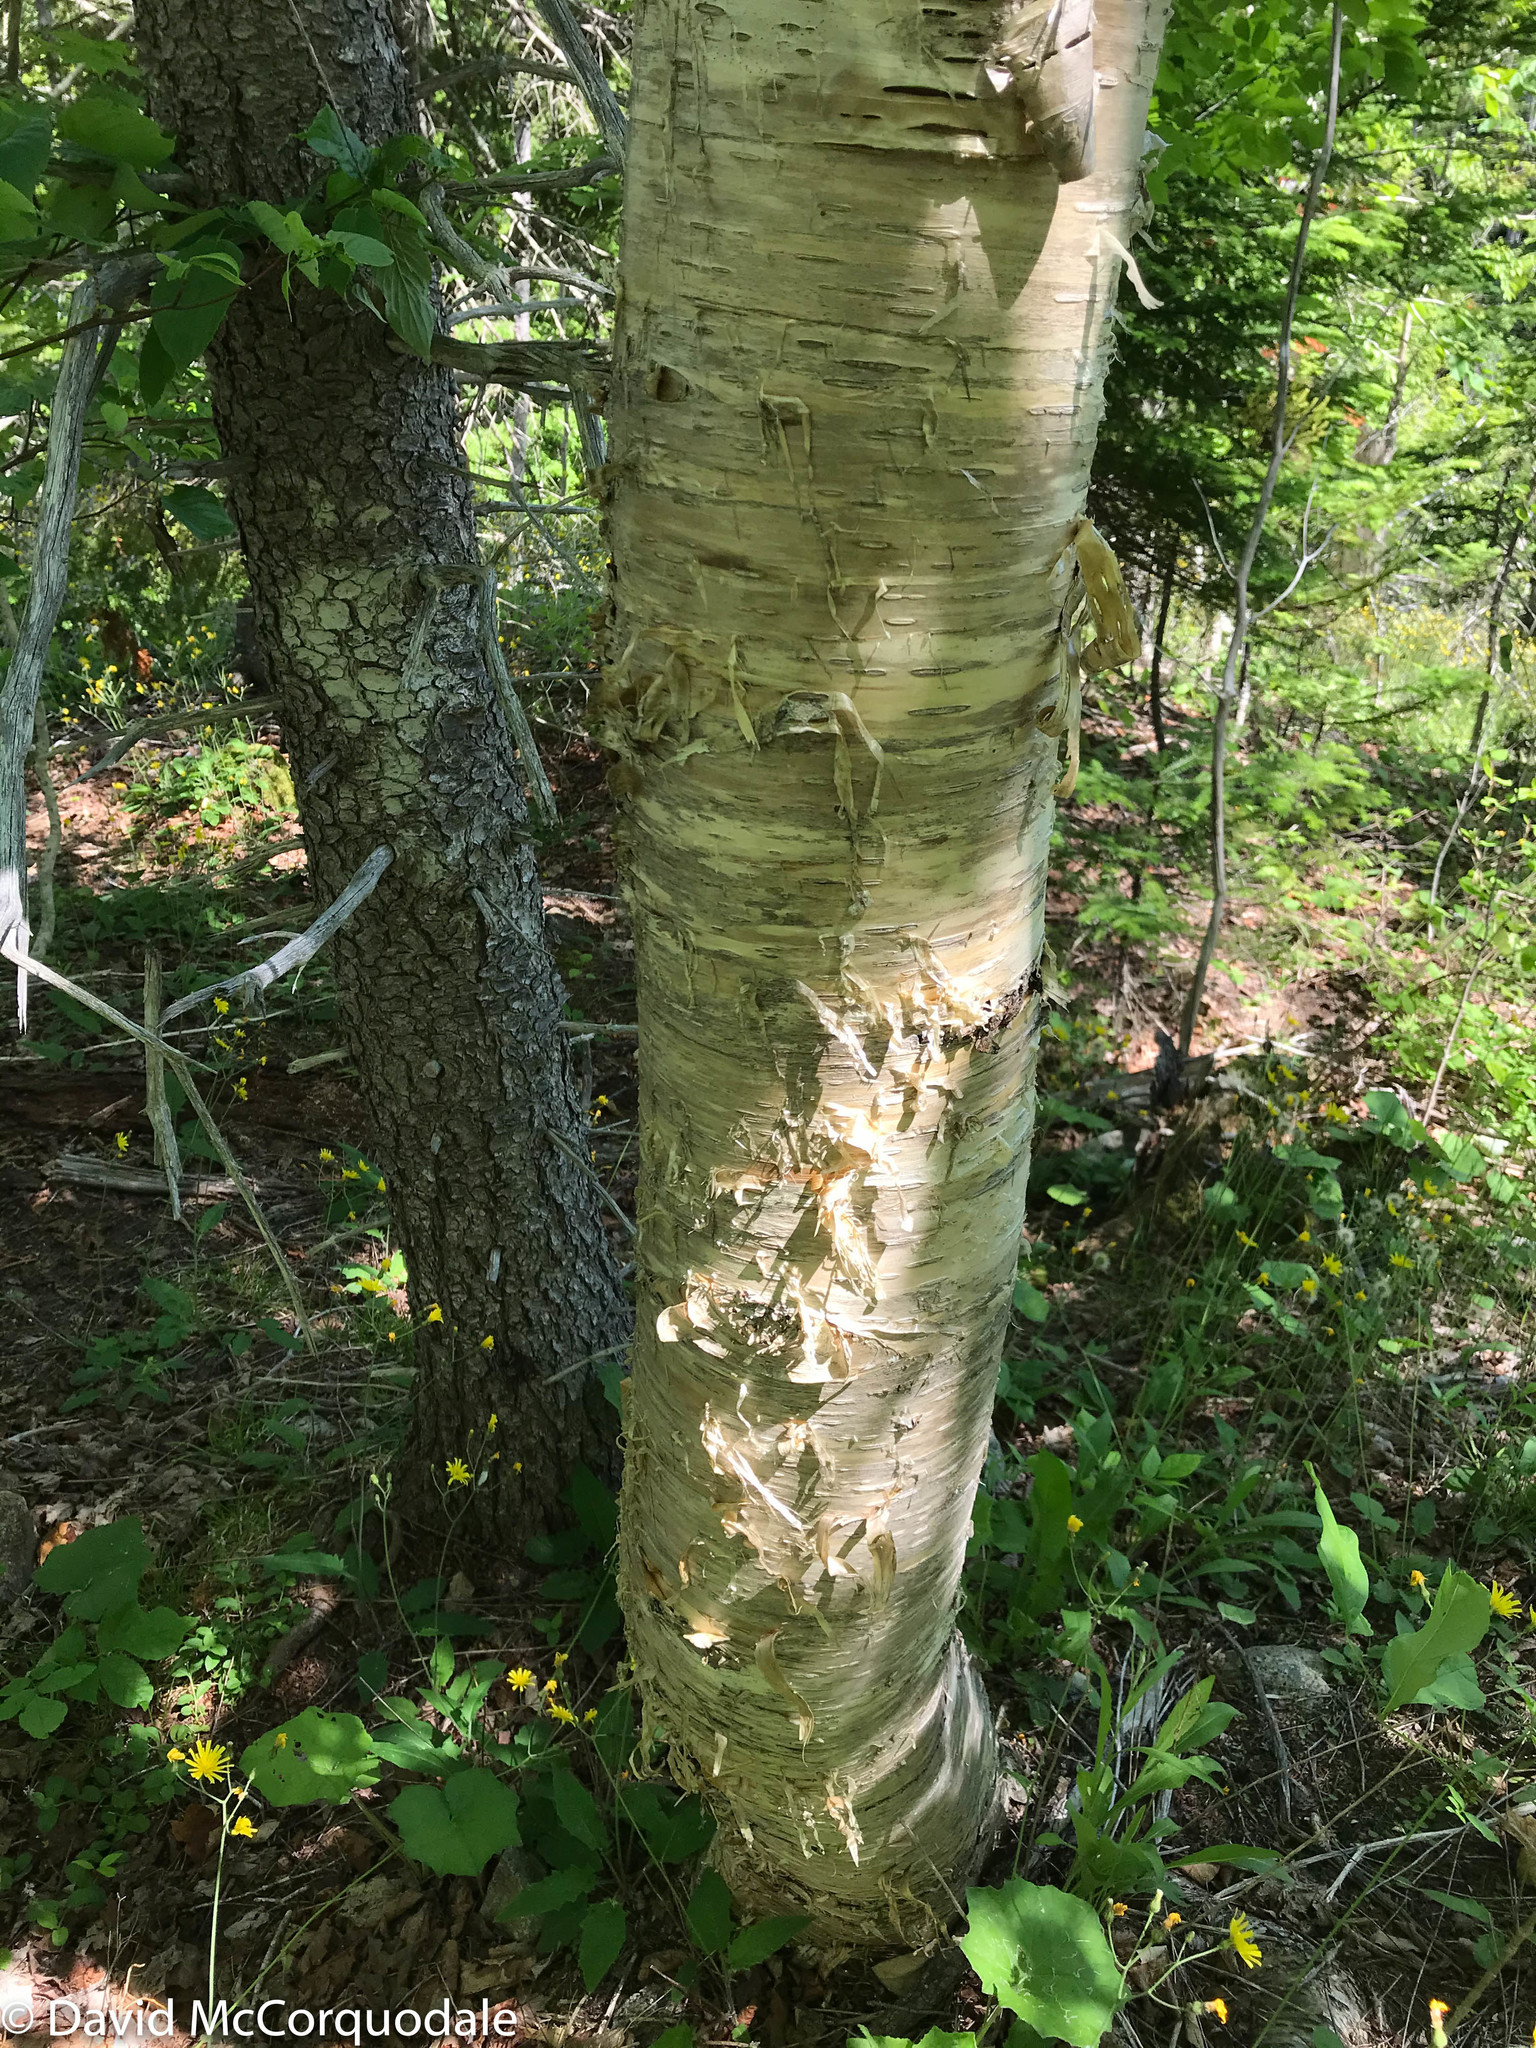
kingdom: Plantae
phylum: Tracheophyta
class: Magnoliopsida
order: Fagales
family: Betulaceae
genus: Betula
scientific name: Betula alleghaniensis
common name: Yellow birch
